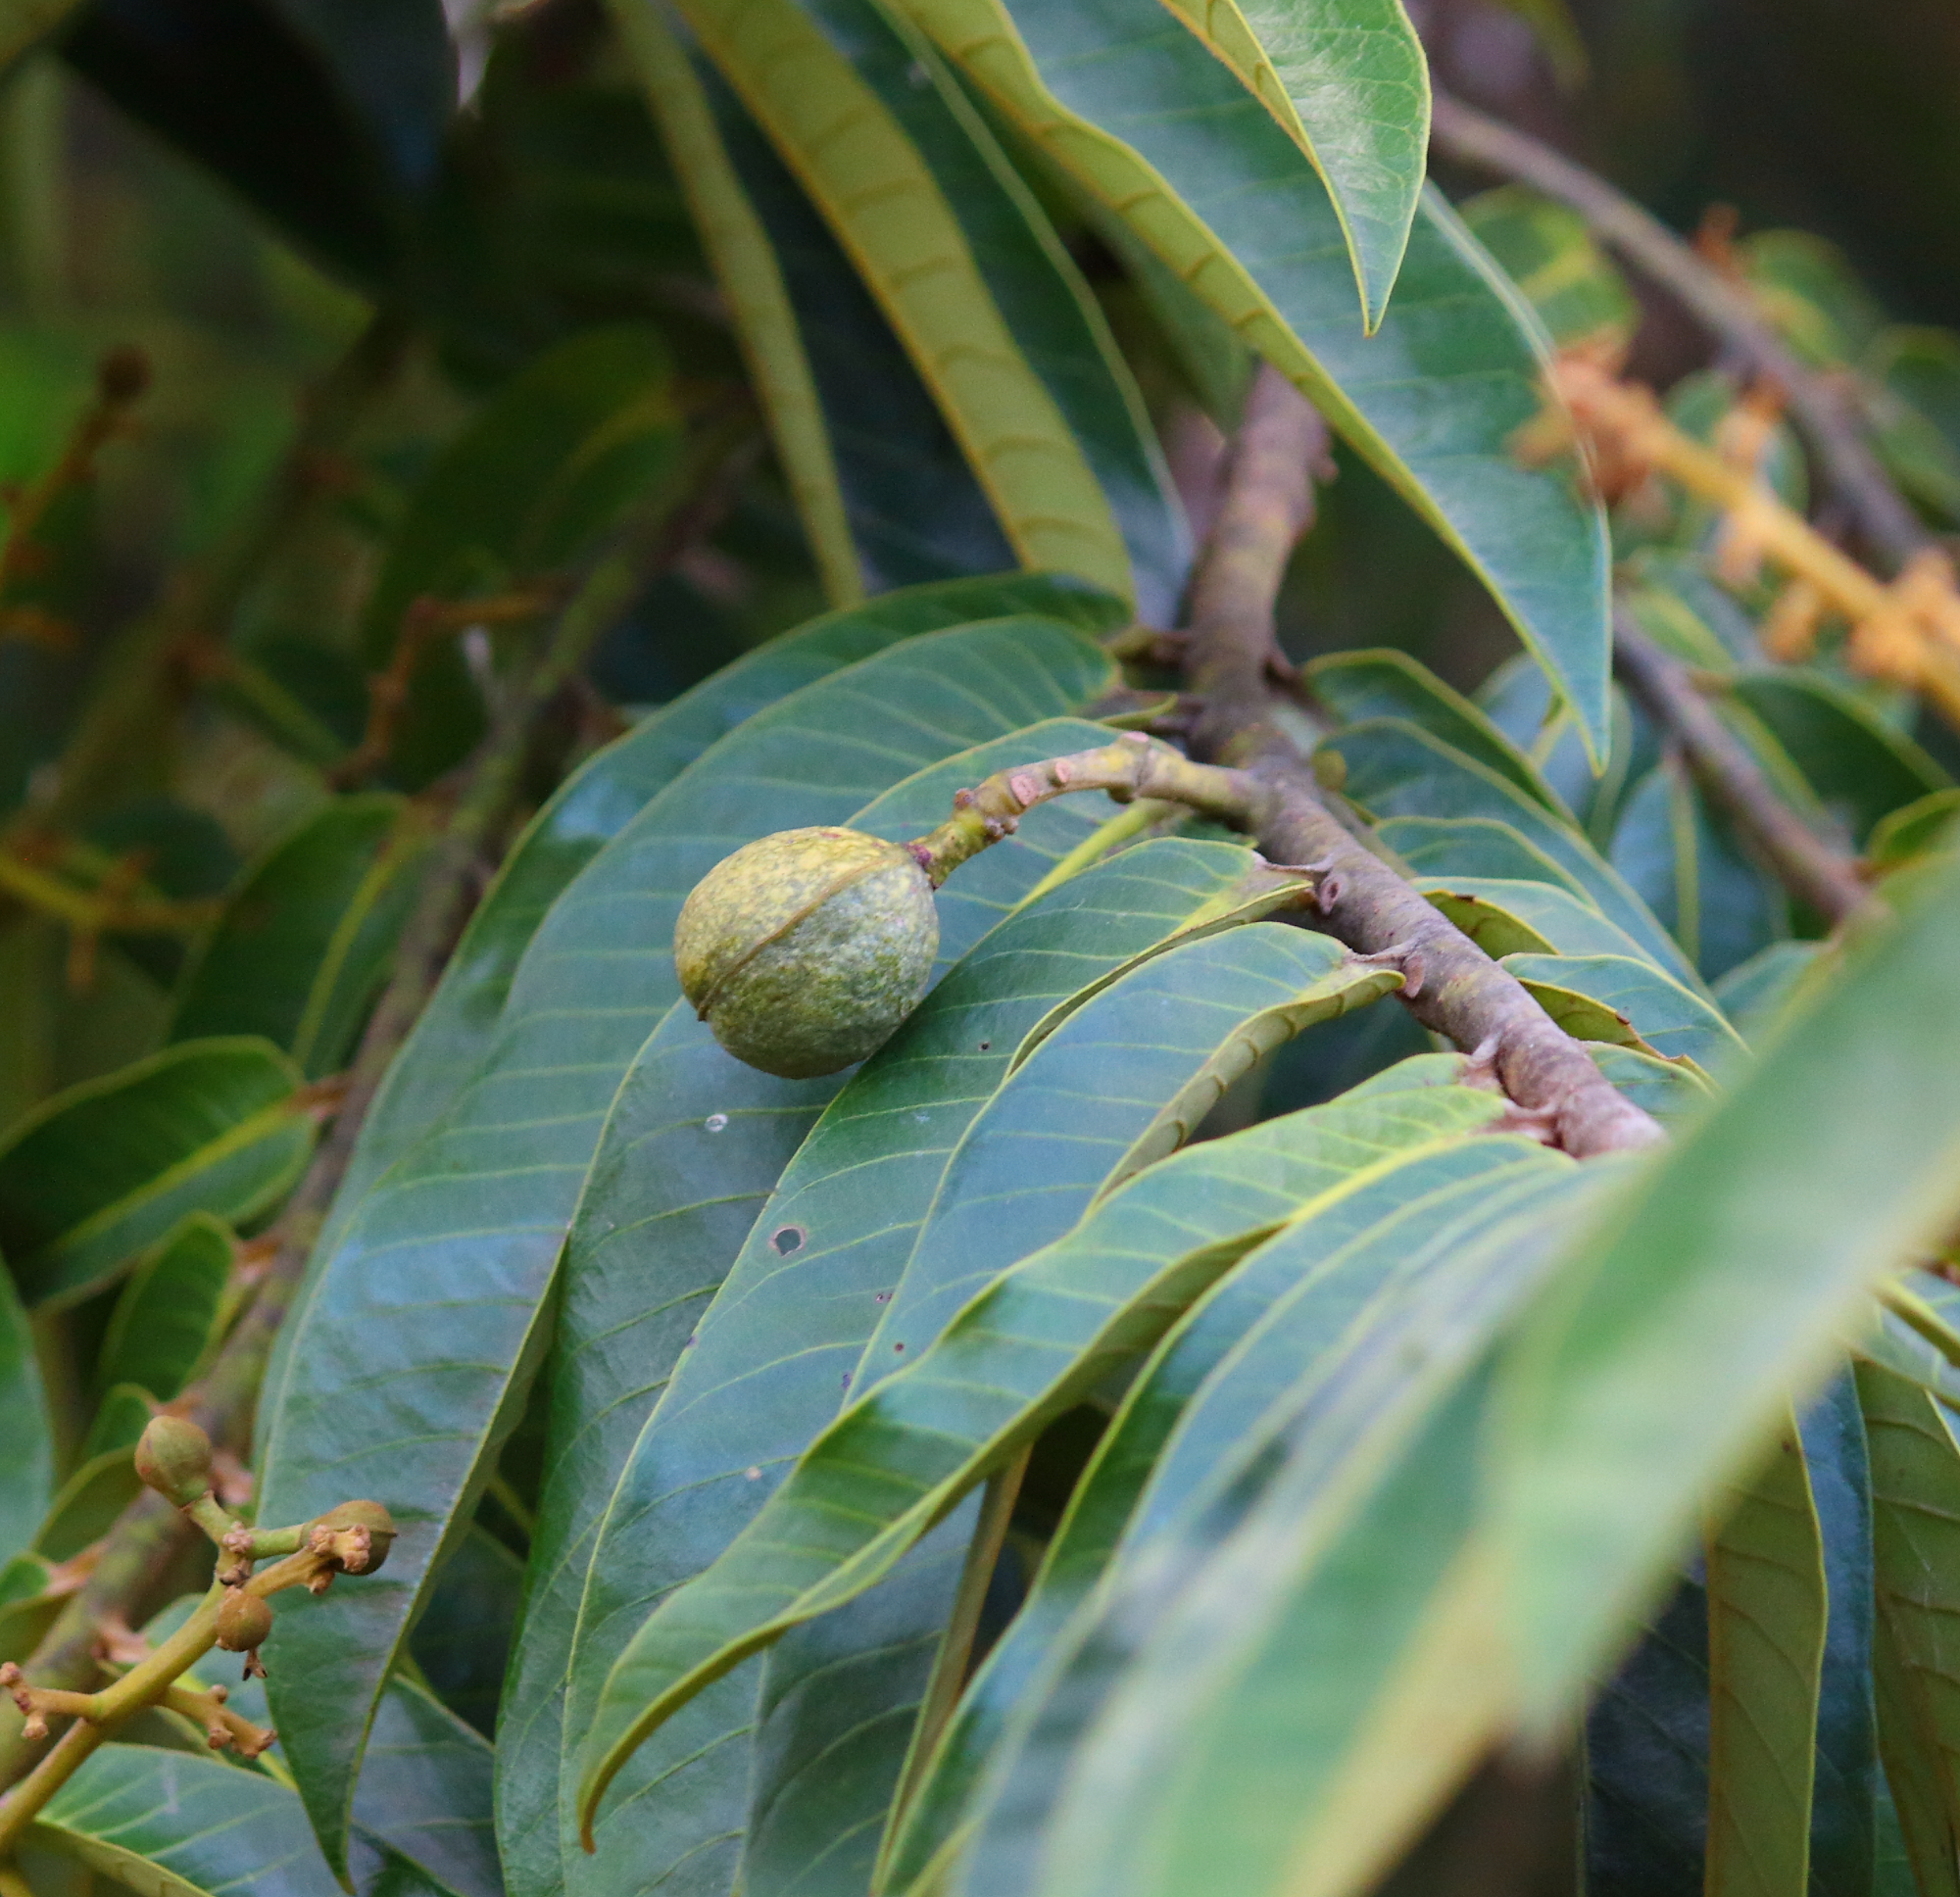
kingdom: Plantae
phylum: Tracheophyta
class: Magnoliopsida
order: Magnoliales
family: Myristicaceae
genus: Virola
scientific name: Virola surinamensis
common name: Baboonwood
